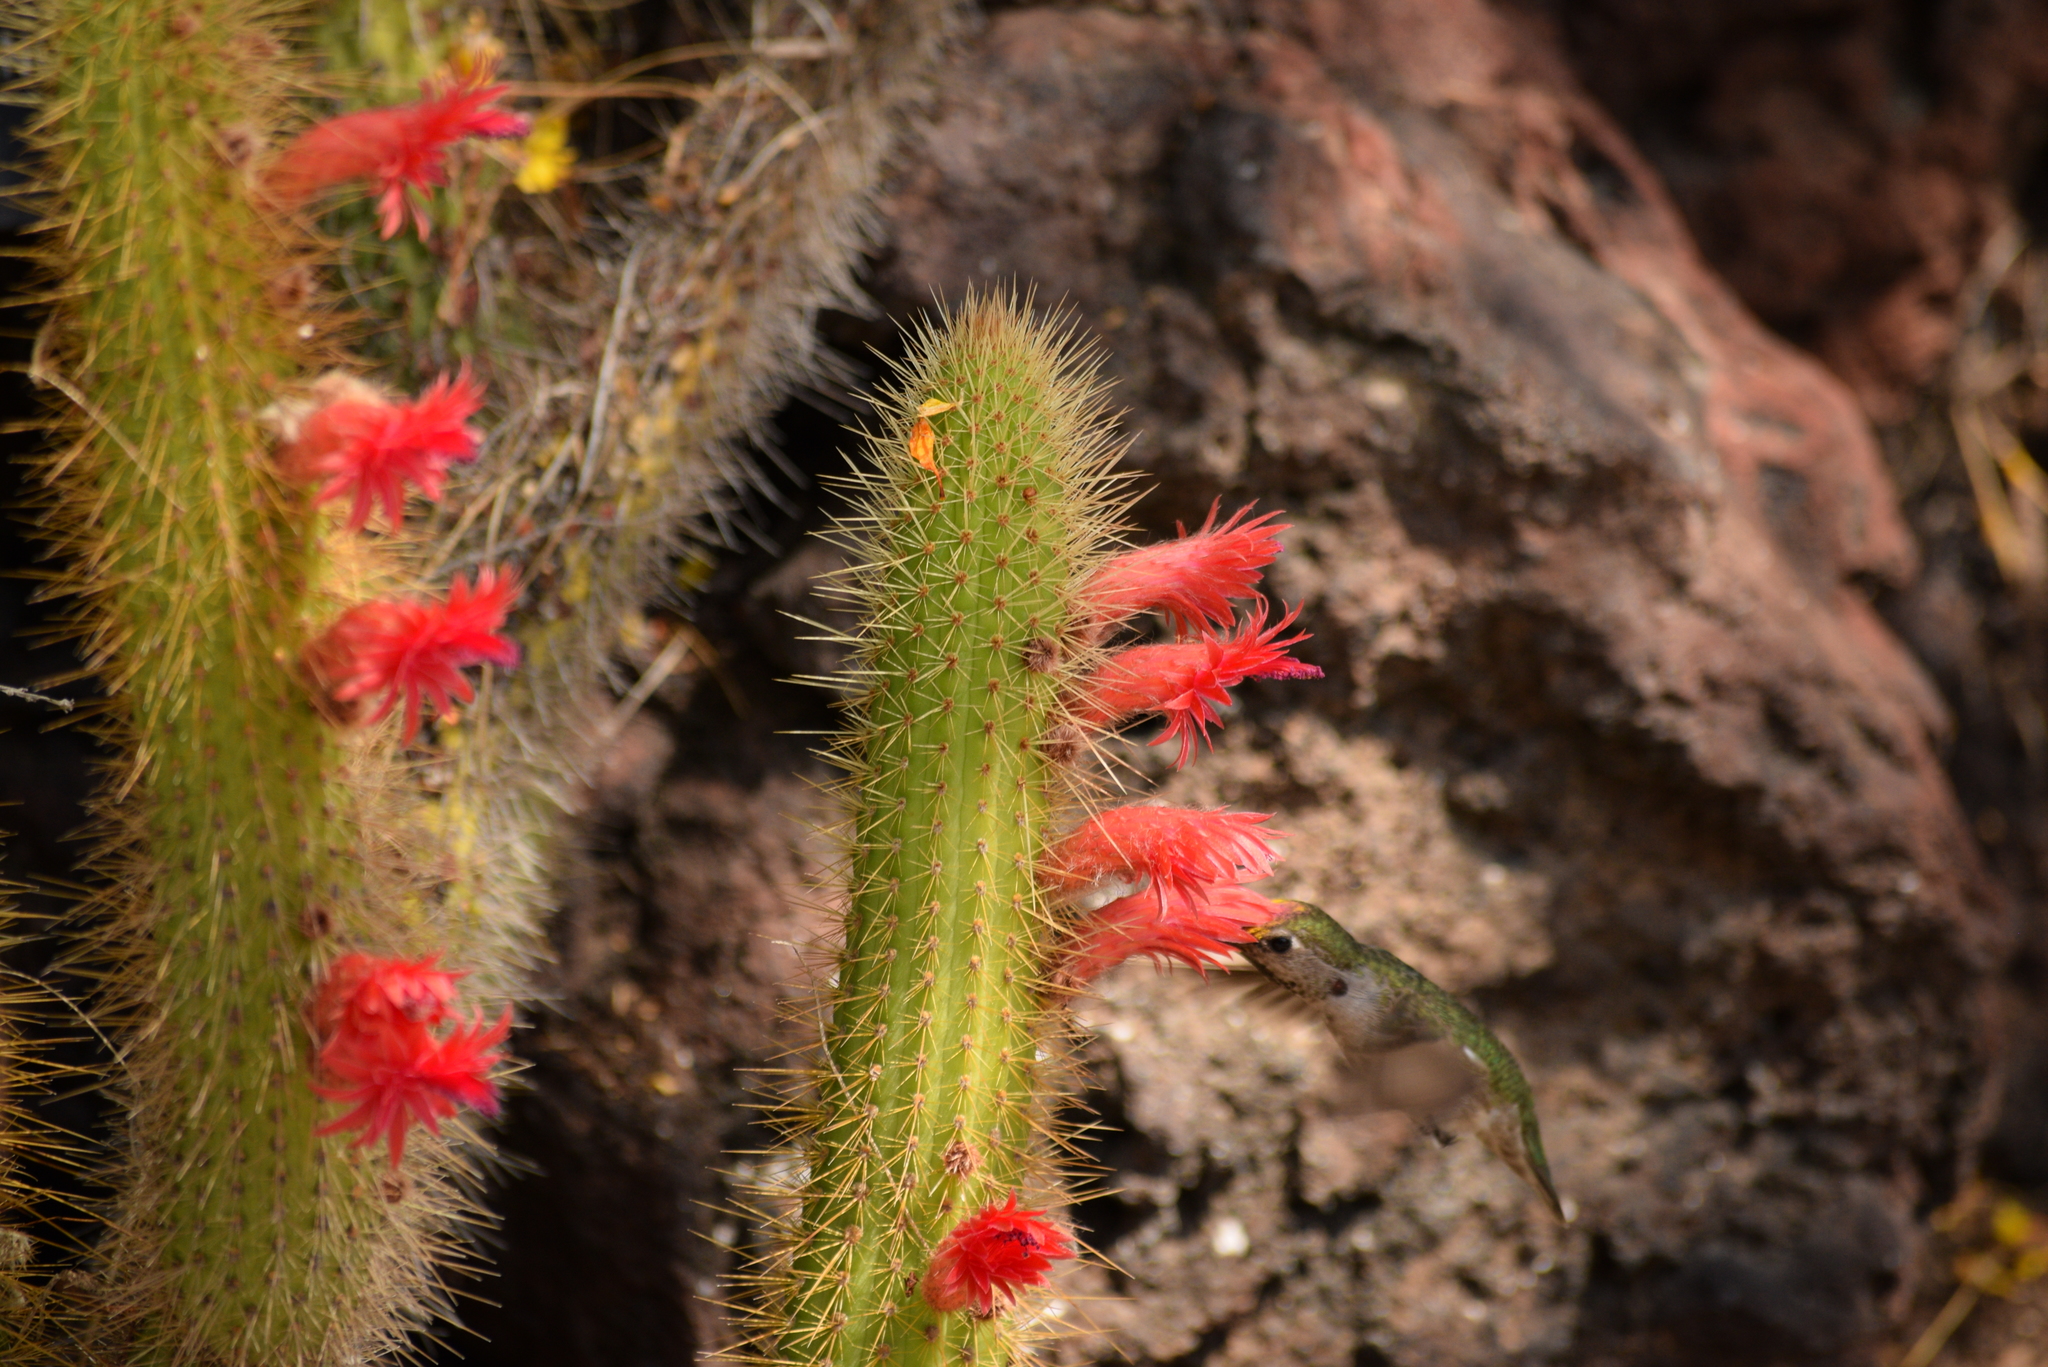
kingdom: Animalia
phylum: Chordata
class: Aves
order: Apodiformes
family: Trochilidae
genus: Calypte
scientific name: Calypte anna
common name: Anna's hummingbird
